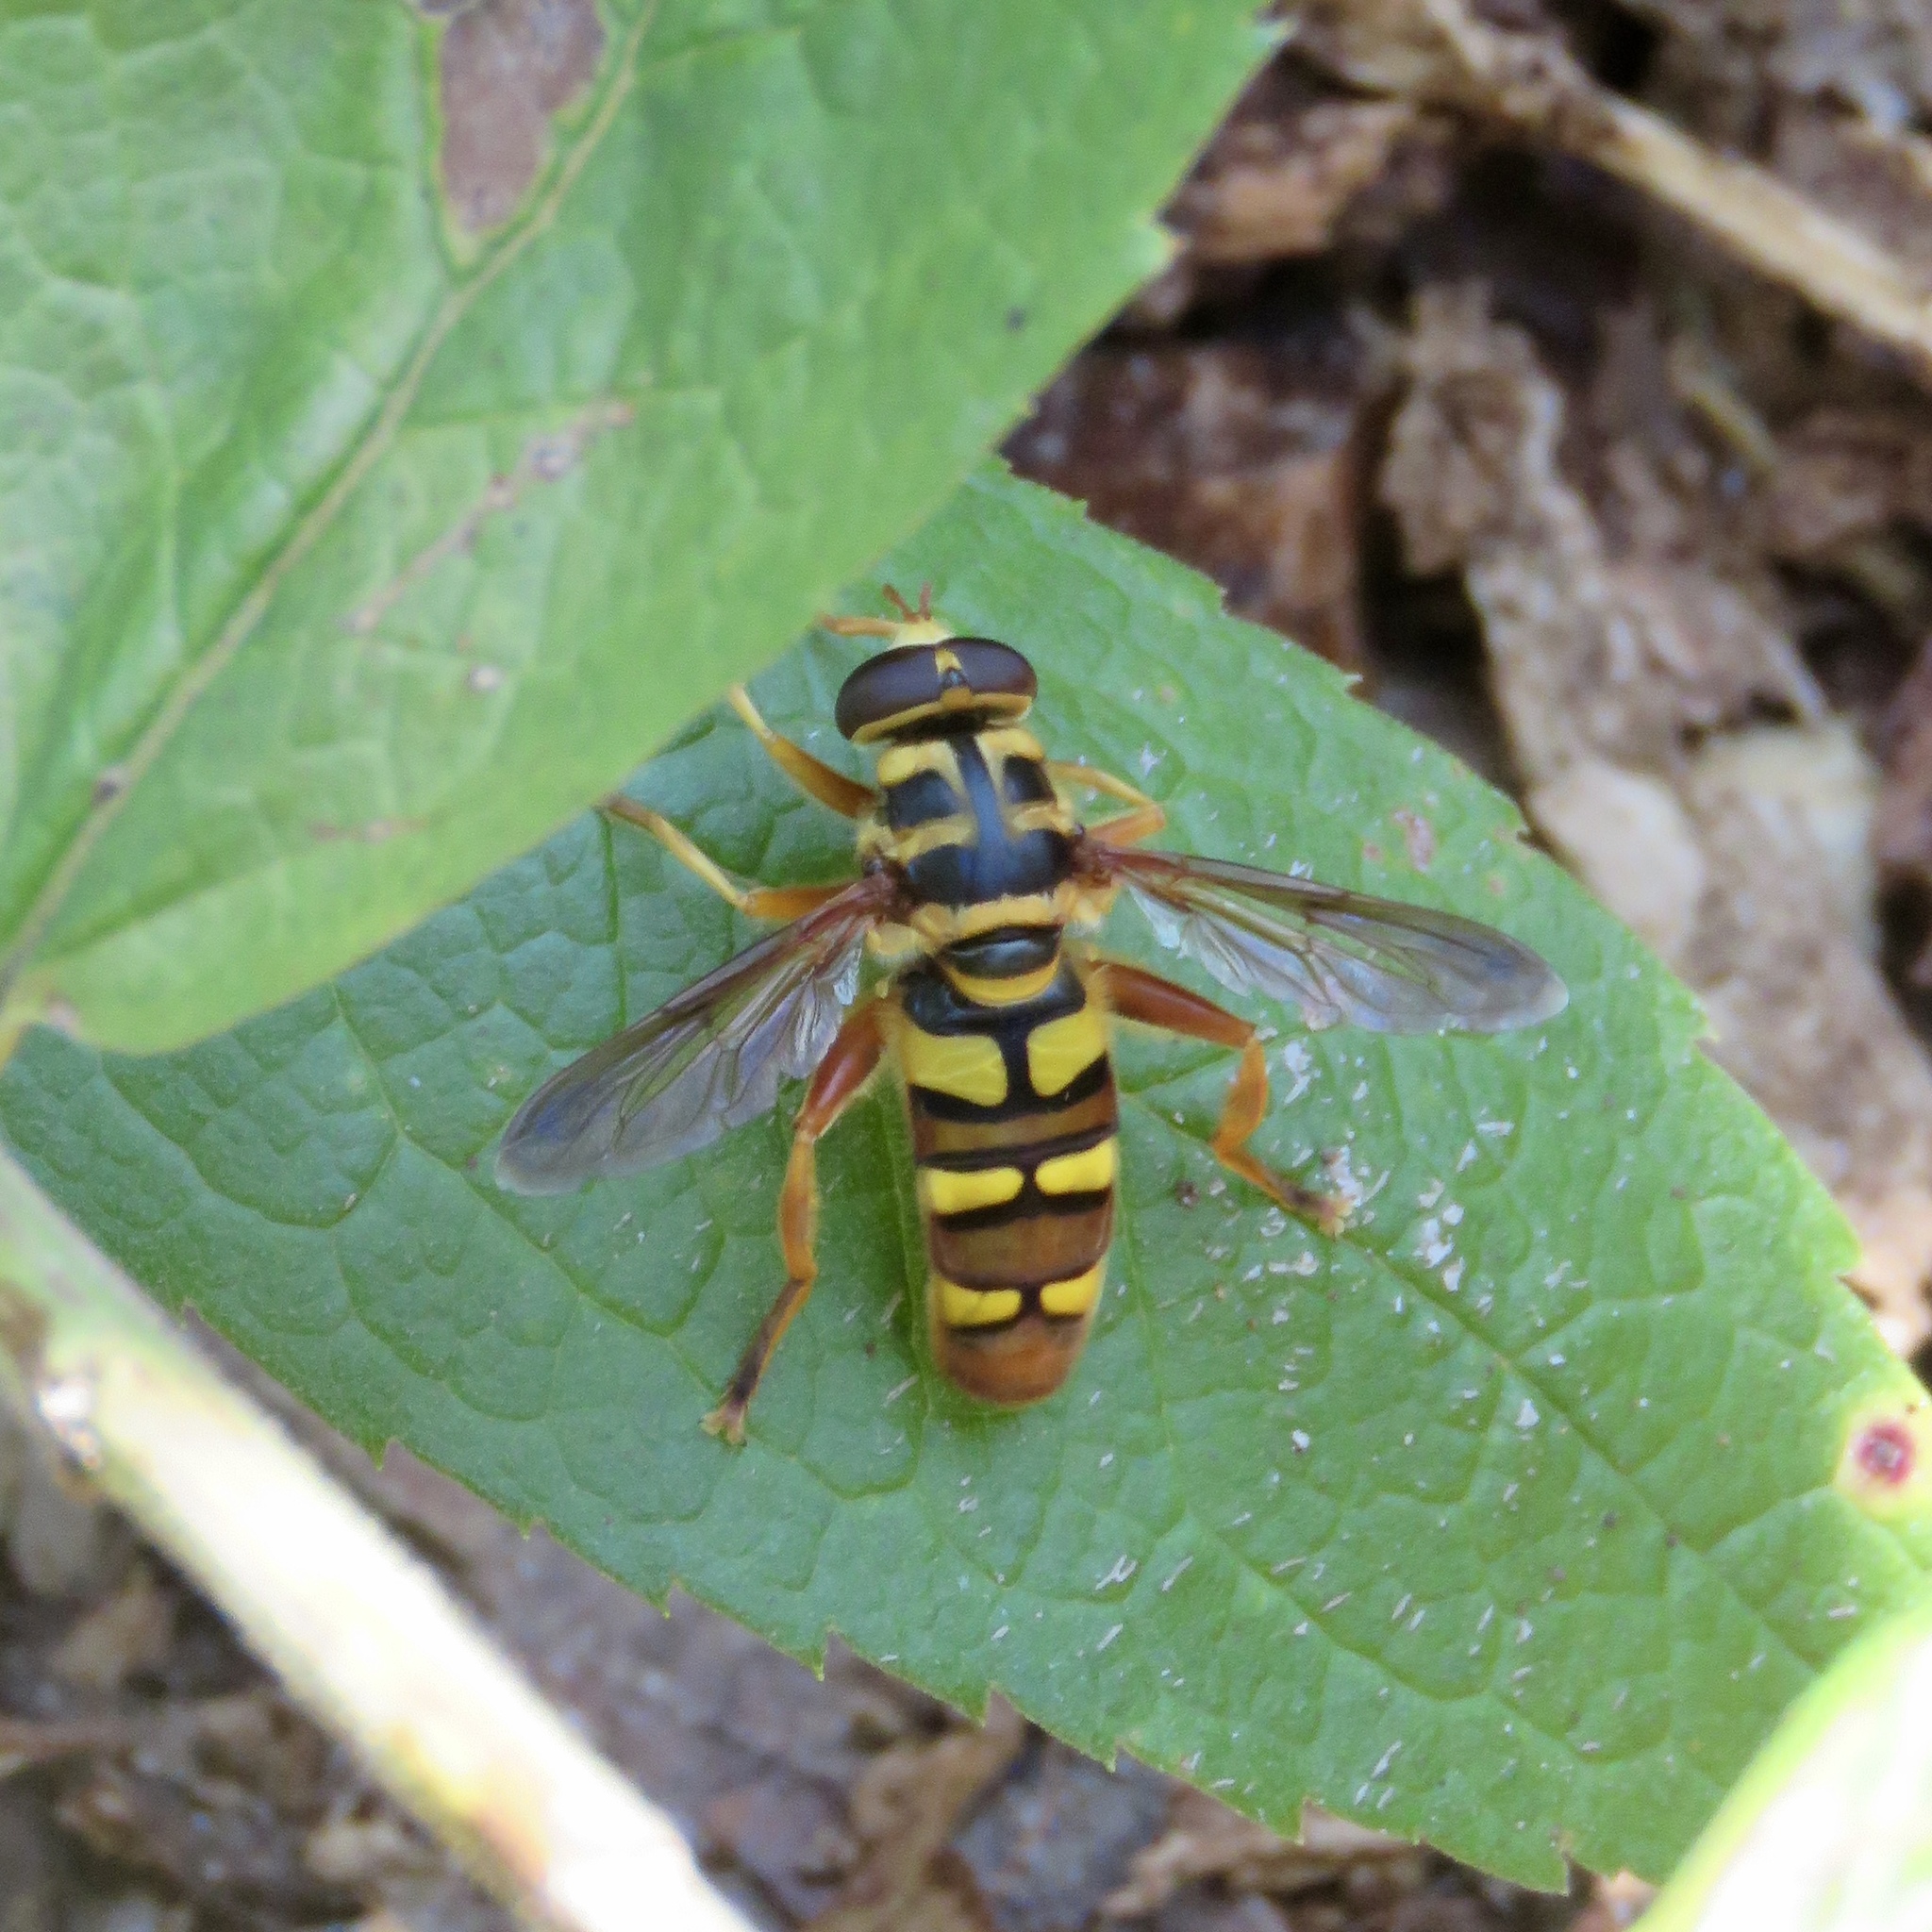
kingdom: Animalia
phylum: Arthropoda
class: Insecta
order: Diptera
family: Syrphidae
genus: Milesia
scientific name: Milesia virginiensis
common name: Virginia giant
